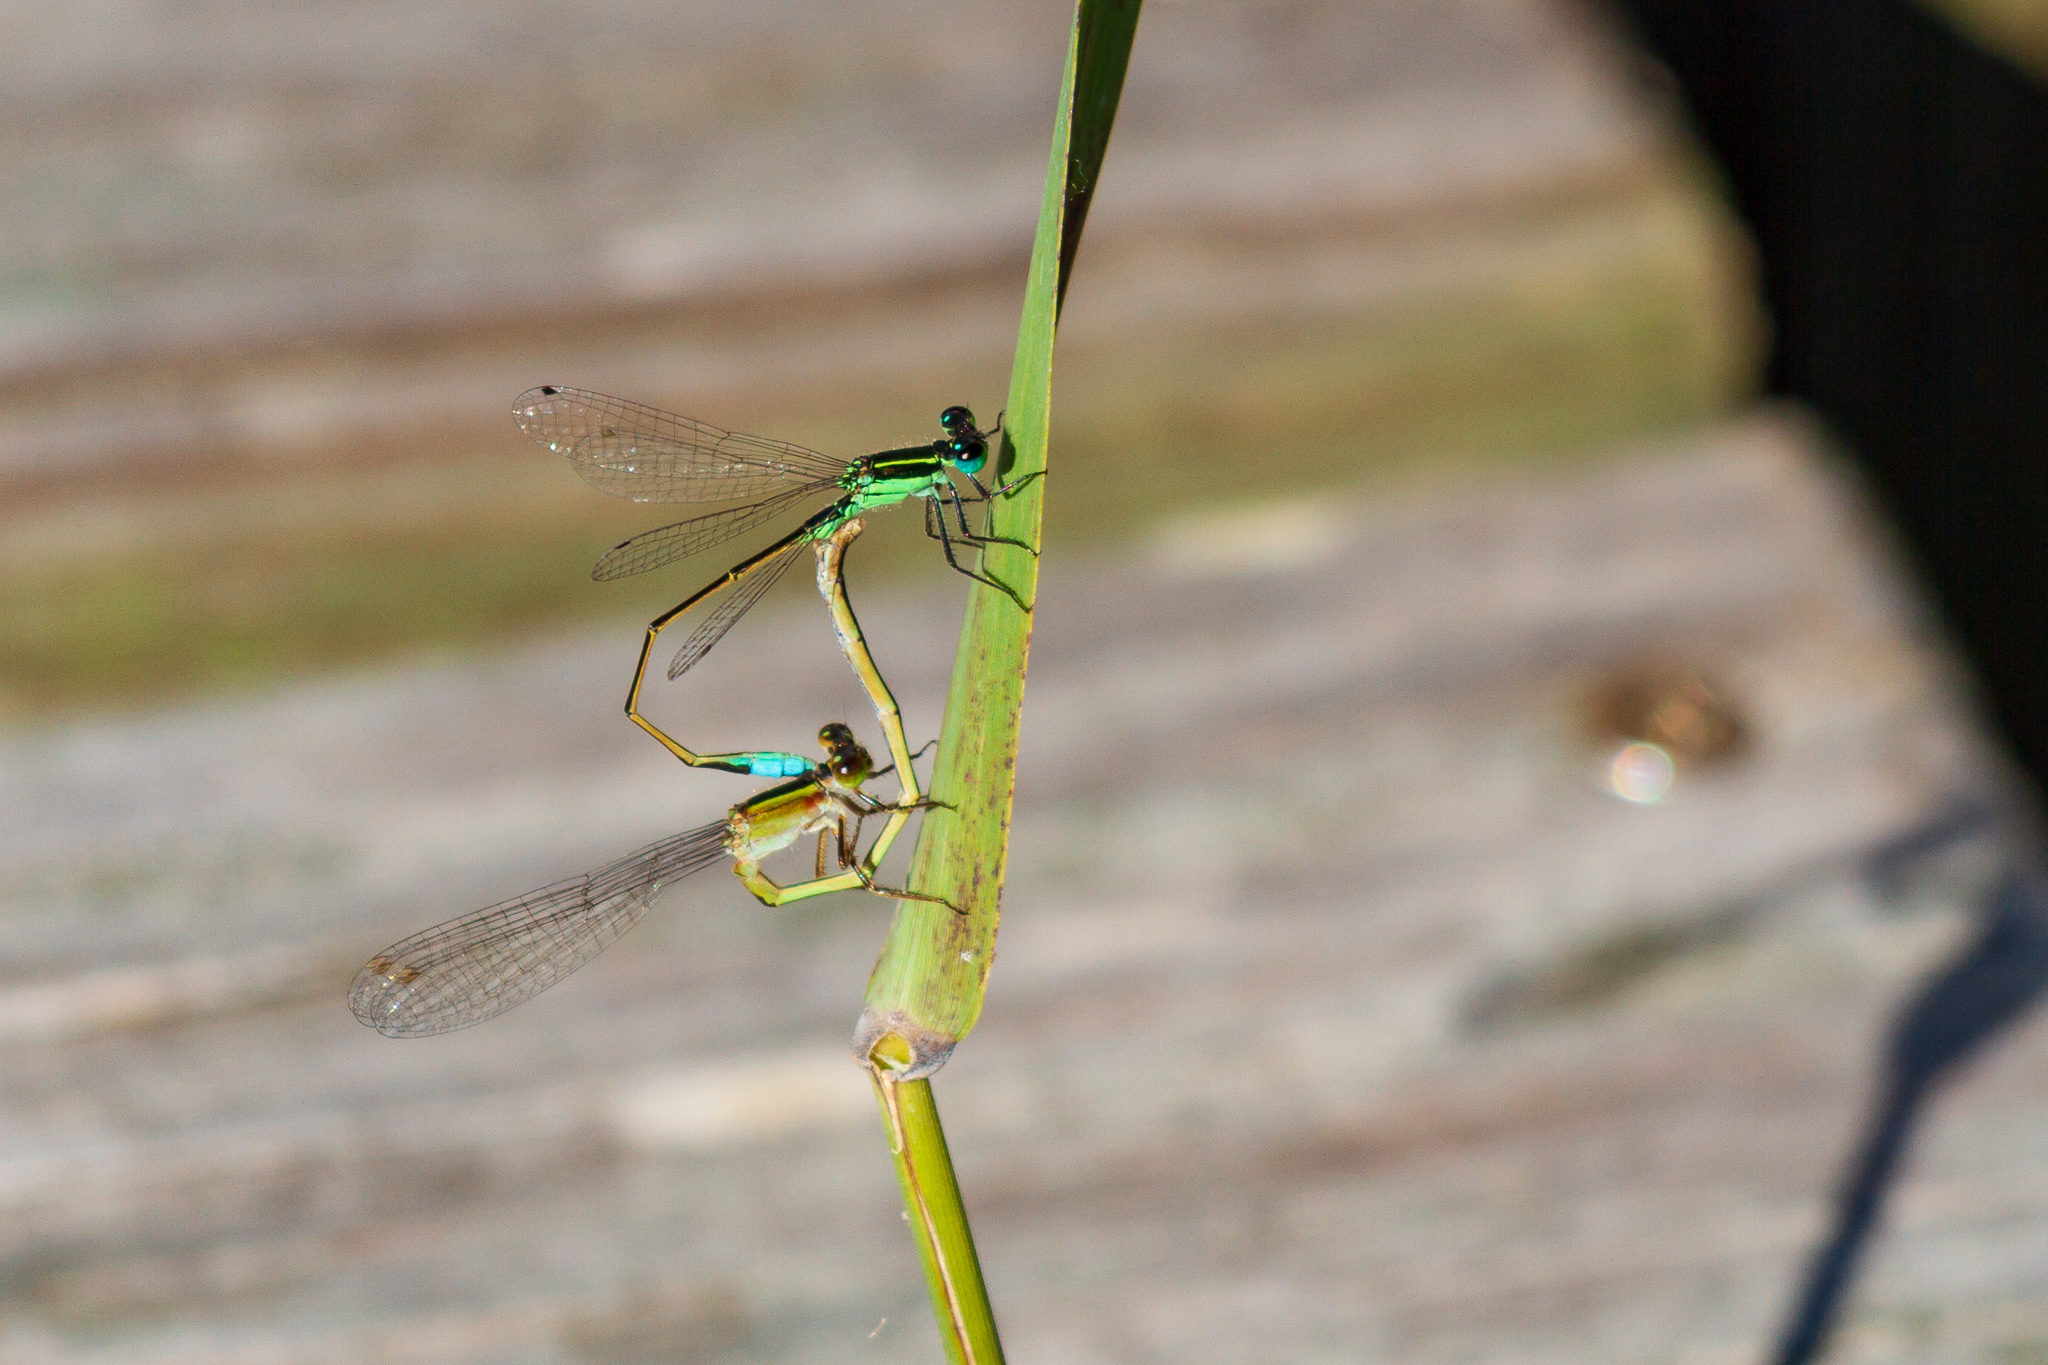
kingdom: Animalia
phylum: Arthropoda
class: Insecta
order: Odonata
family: Coenagrionidae
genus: Ischnura
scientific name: Ischnura ramburii
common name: Rambur's forktail
